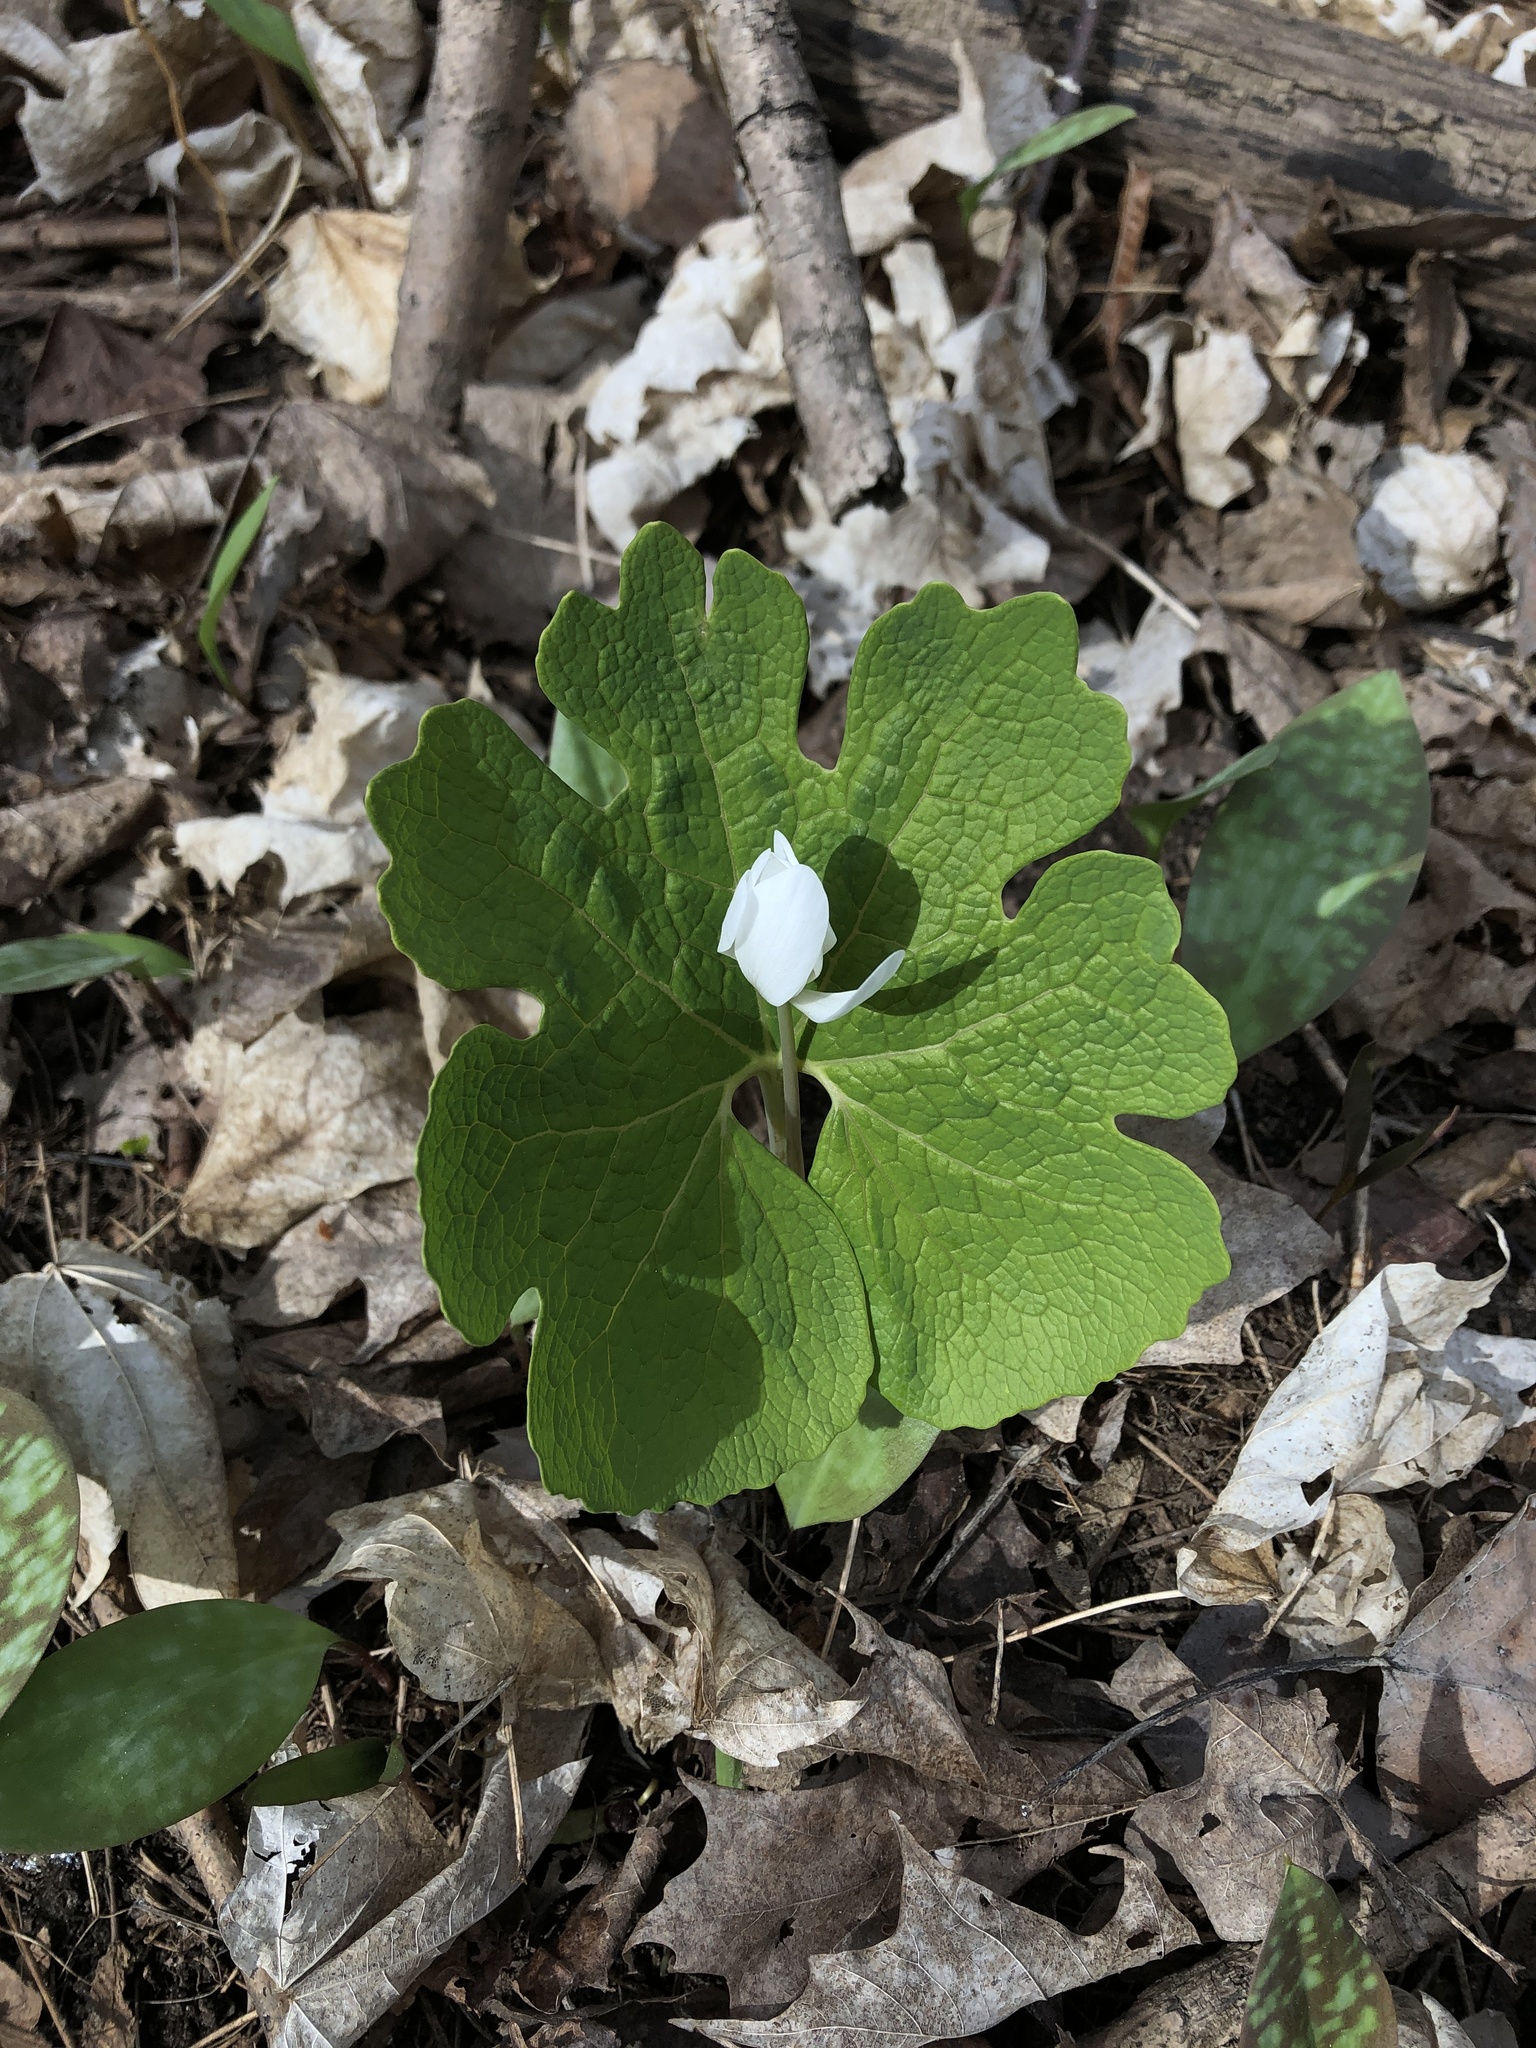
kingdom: Plantae
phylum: Tracheophyta
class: Magnoliopsida
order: Ranunculales
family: Papaveraceae
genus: Sanguinaria
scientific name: Sanguinaria canadensis
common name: Bloodroot
